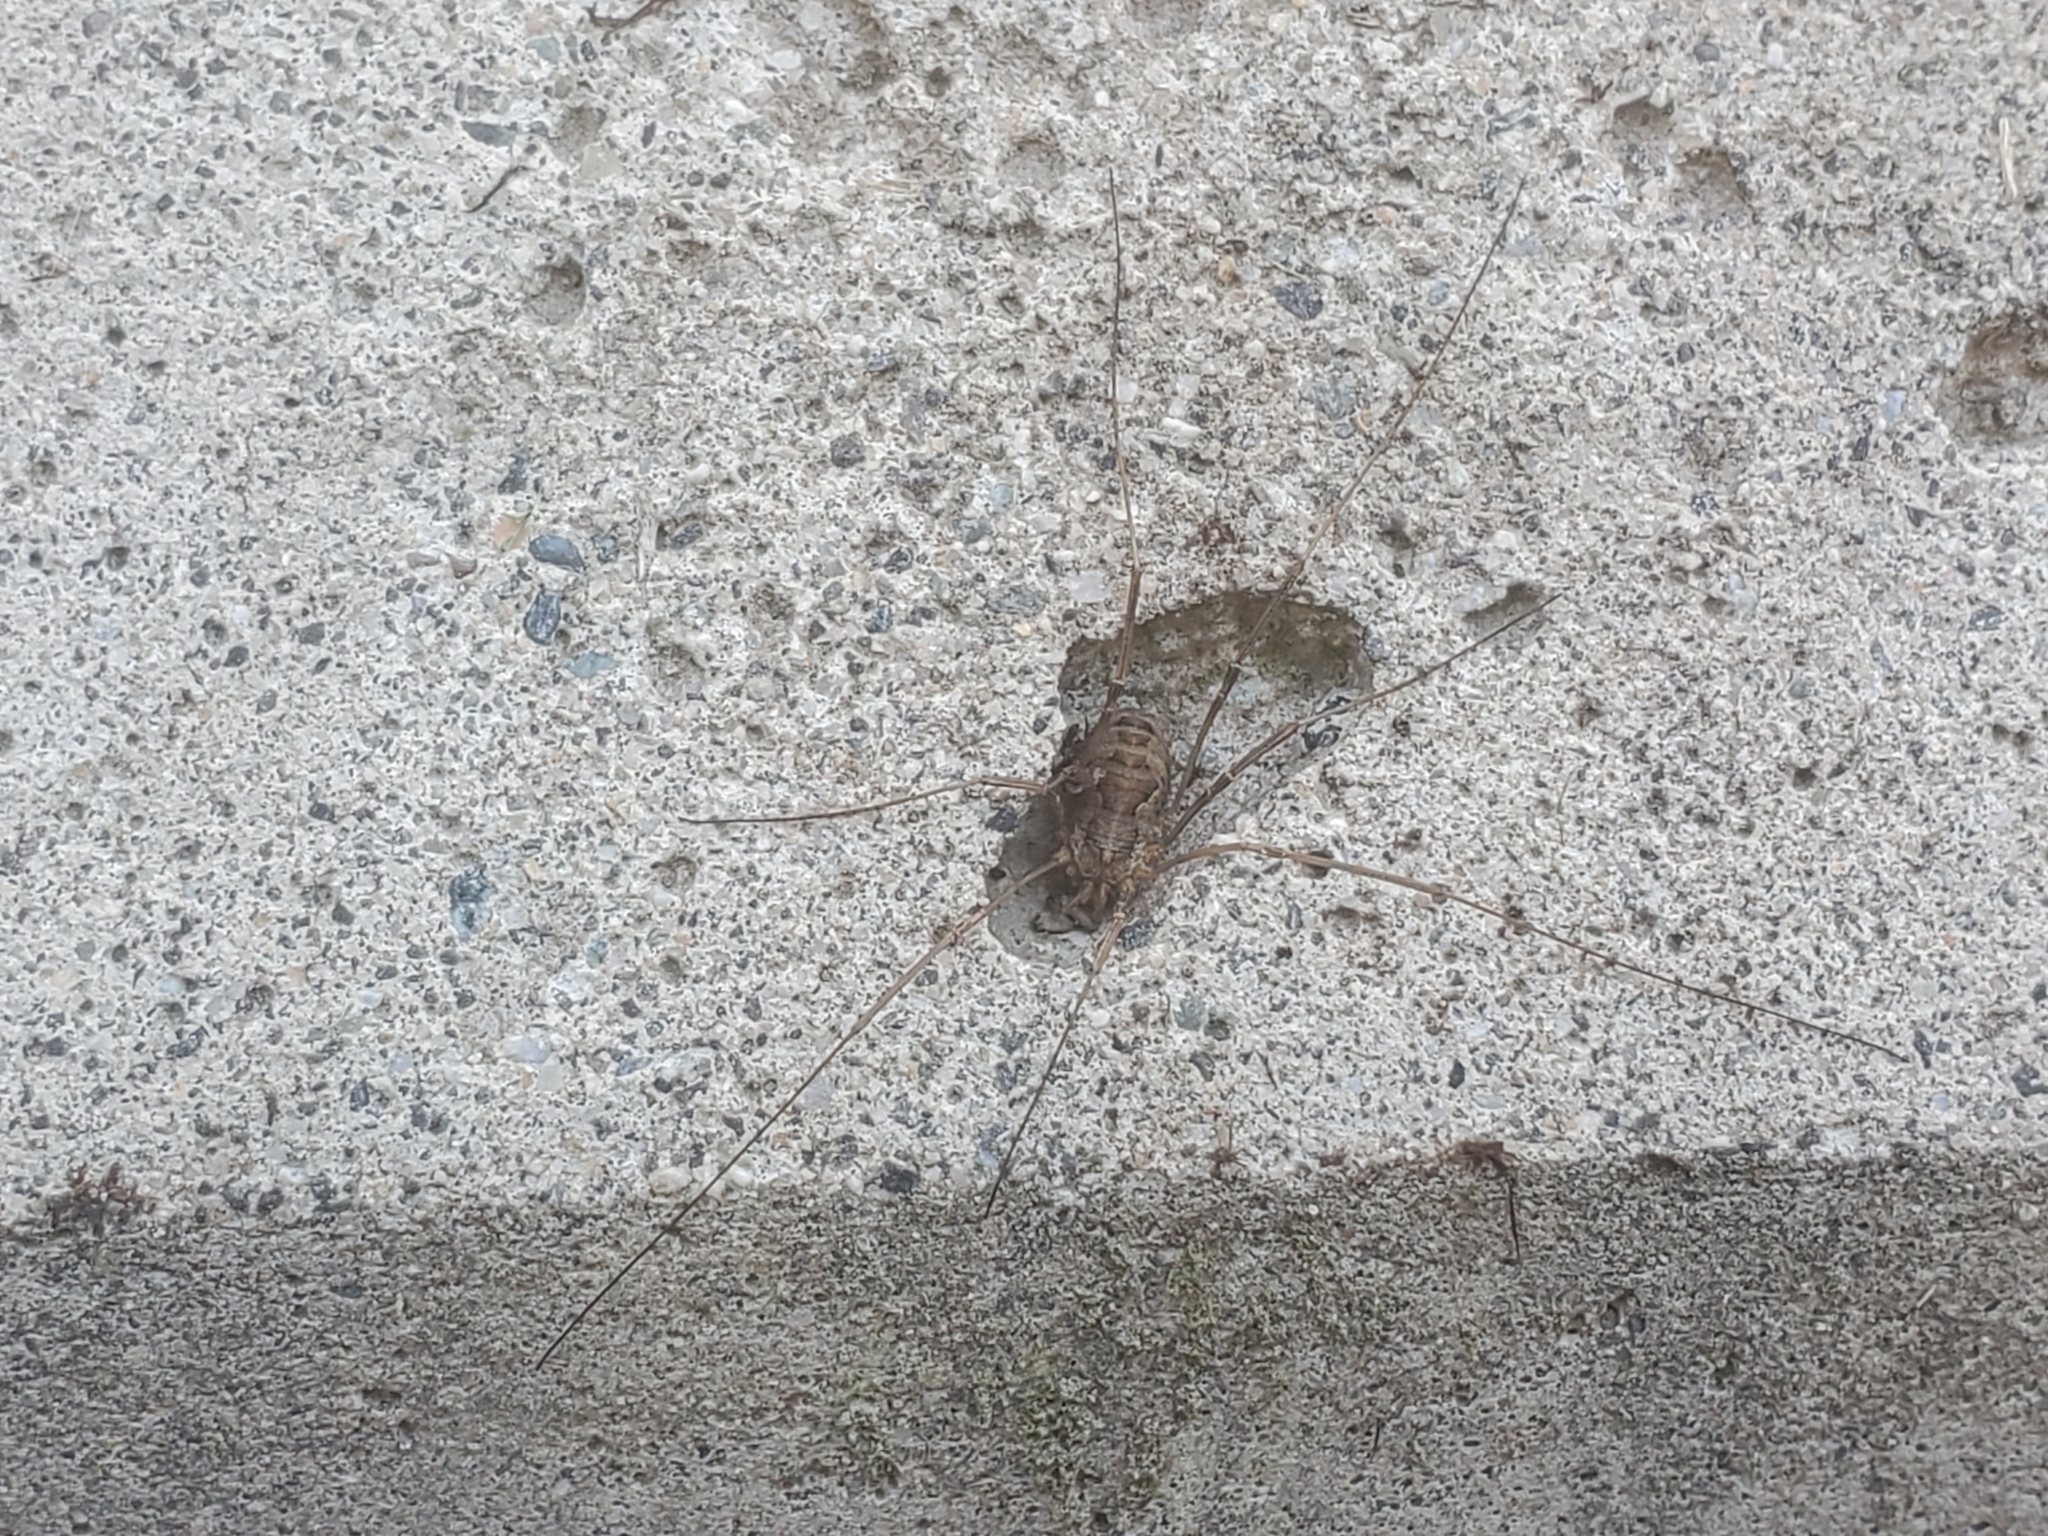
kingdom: Animalia
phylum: Arthropoda
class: Arachnida
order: Opiliones
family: Phalangiidae
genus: Phalangium
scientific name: Phalangium opilio
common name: Daddy longleg
